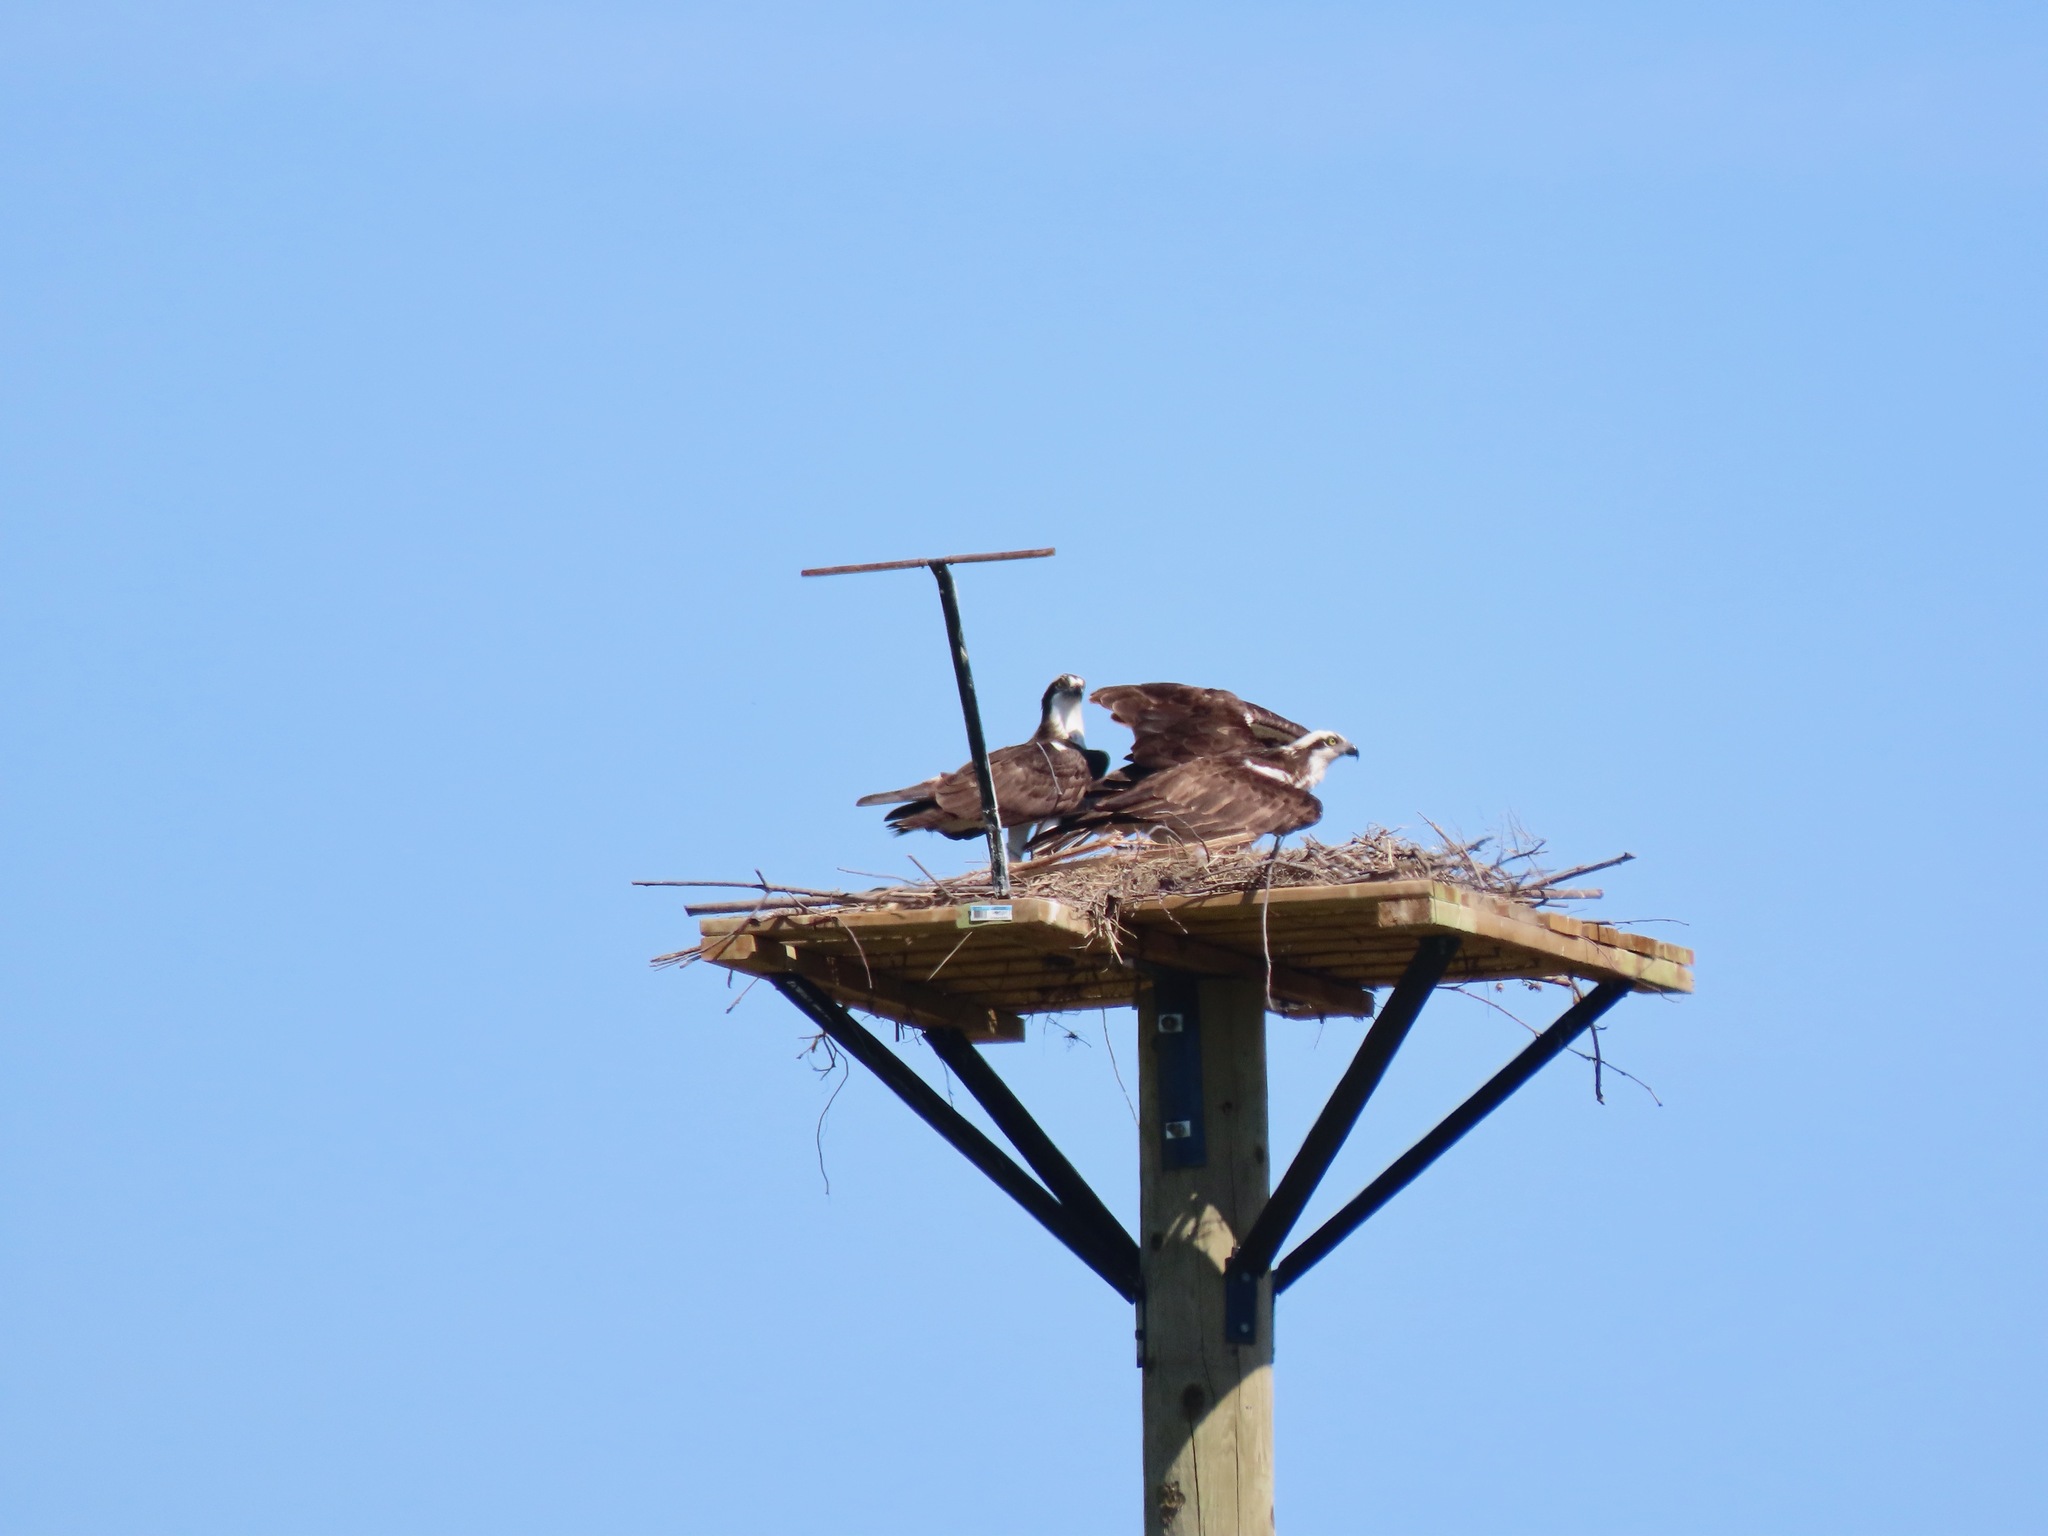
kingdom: Animalia
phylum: Chordata
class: Aves
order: Accipitriformes
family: Pandionidae
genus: Pandion
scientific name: Pandion haliaetus
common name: Osprey
